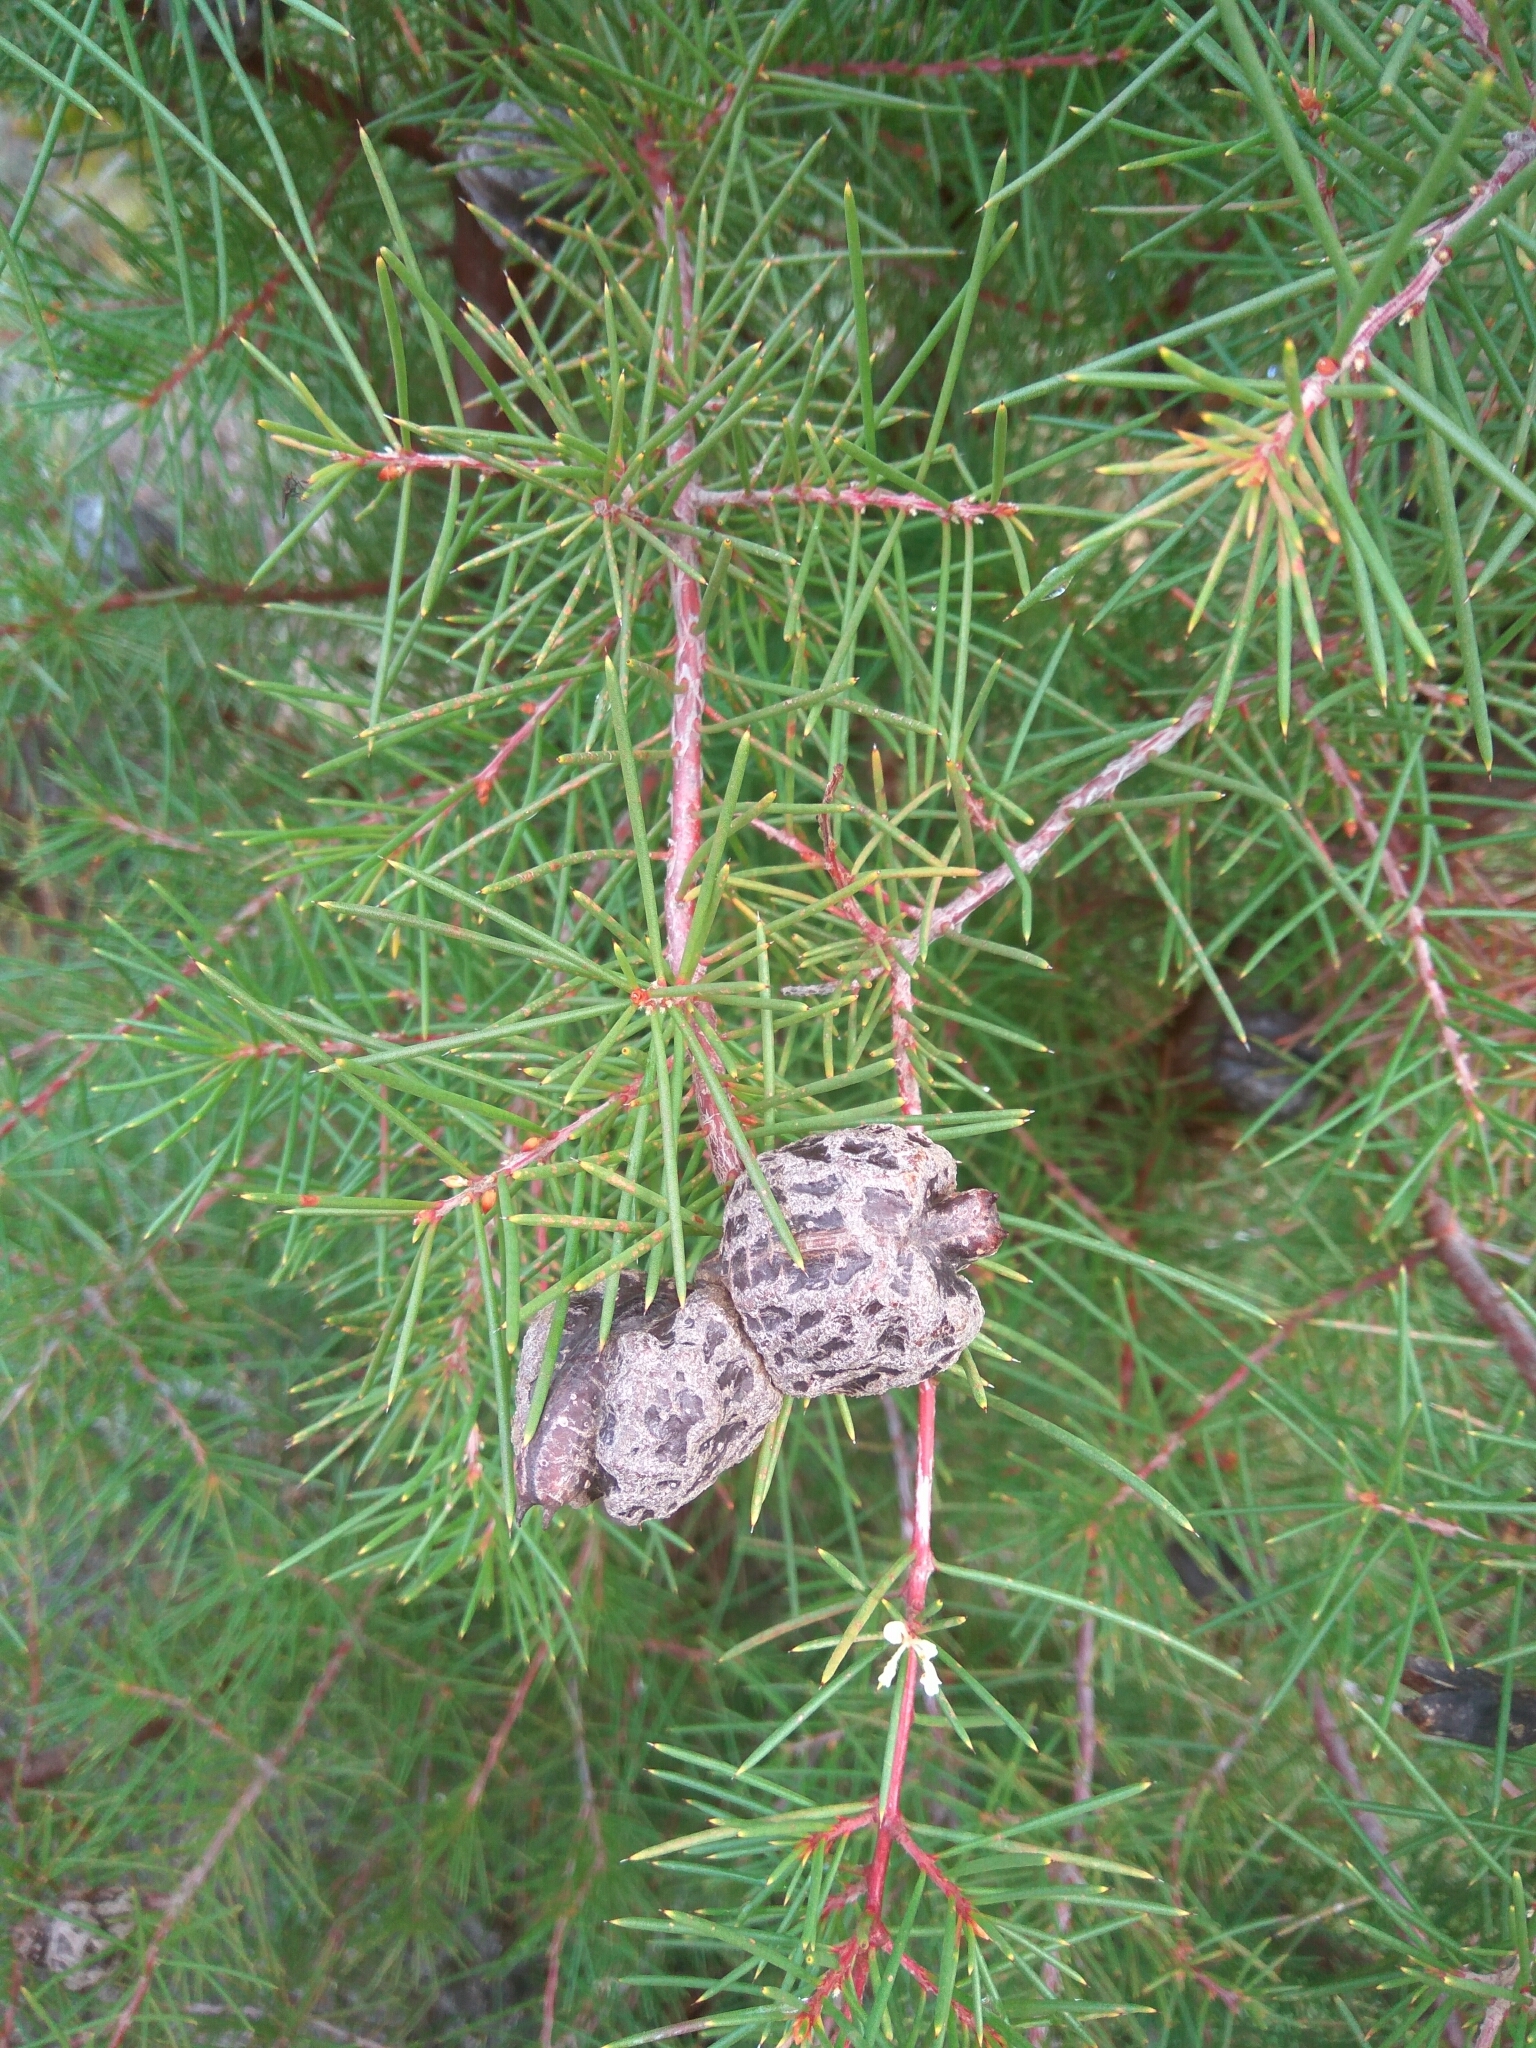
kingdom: Plantae
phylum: Tracheophyta
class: Magnoliopsida
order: Proteales
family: Proteaceae
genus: Hakea
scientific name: Hakea sericea
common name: Needle bush
